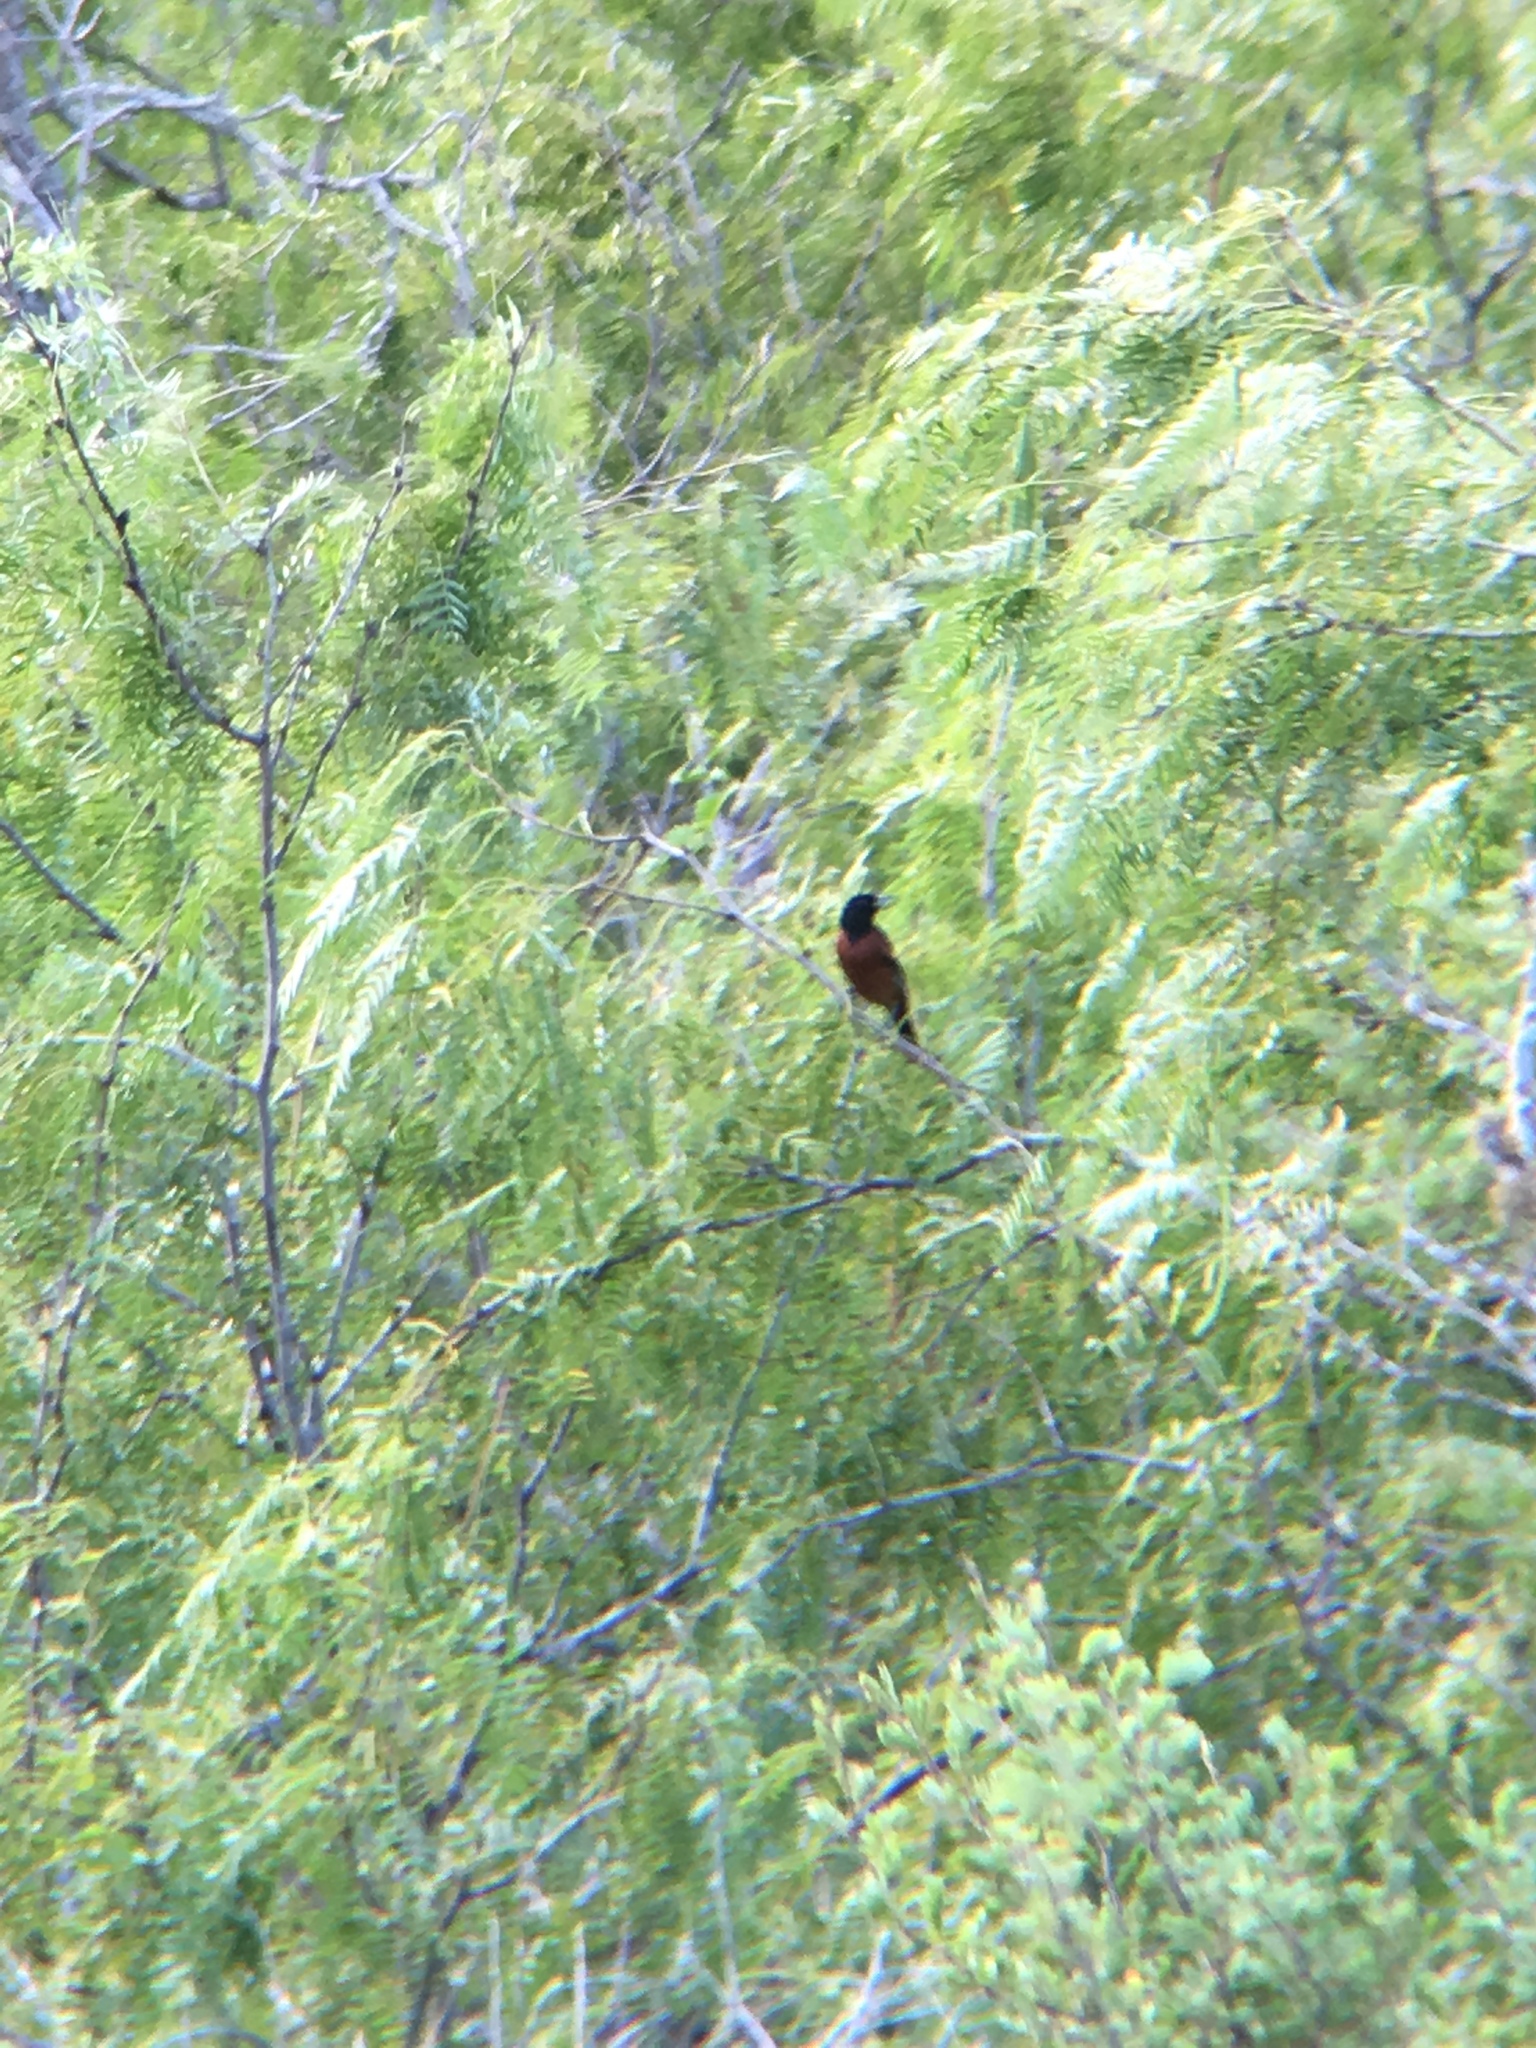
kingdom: Animalia
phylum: Chordata
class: Aves
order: Passeriformes
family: Icteridae
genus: Icterus
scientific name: Icterus spurius
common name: Orchard oriole
